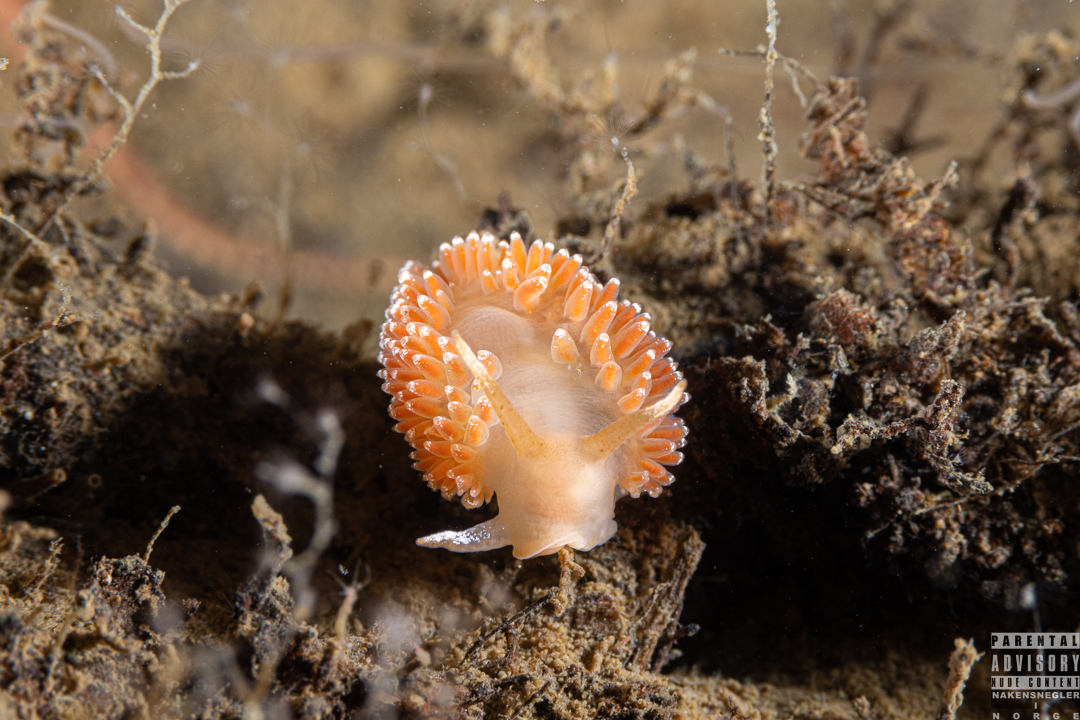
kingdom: Animalia
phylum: Mollusca
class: Gastropoda
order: Nudibranchia
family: Coryphellidae
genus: Coryphella
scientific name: Coryphella borealis
